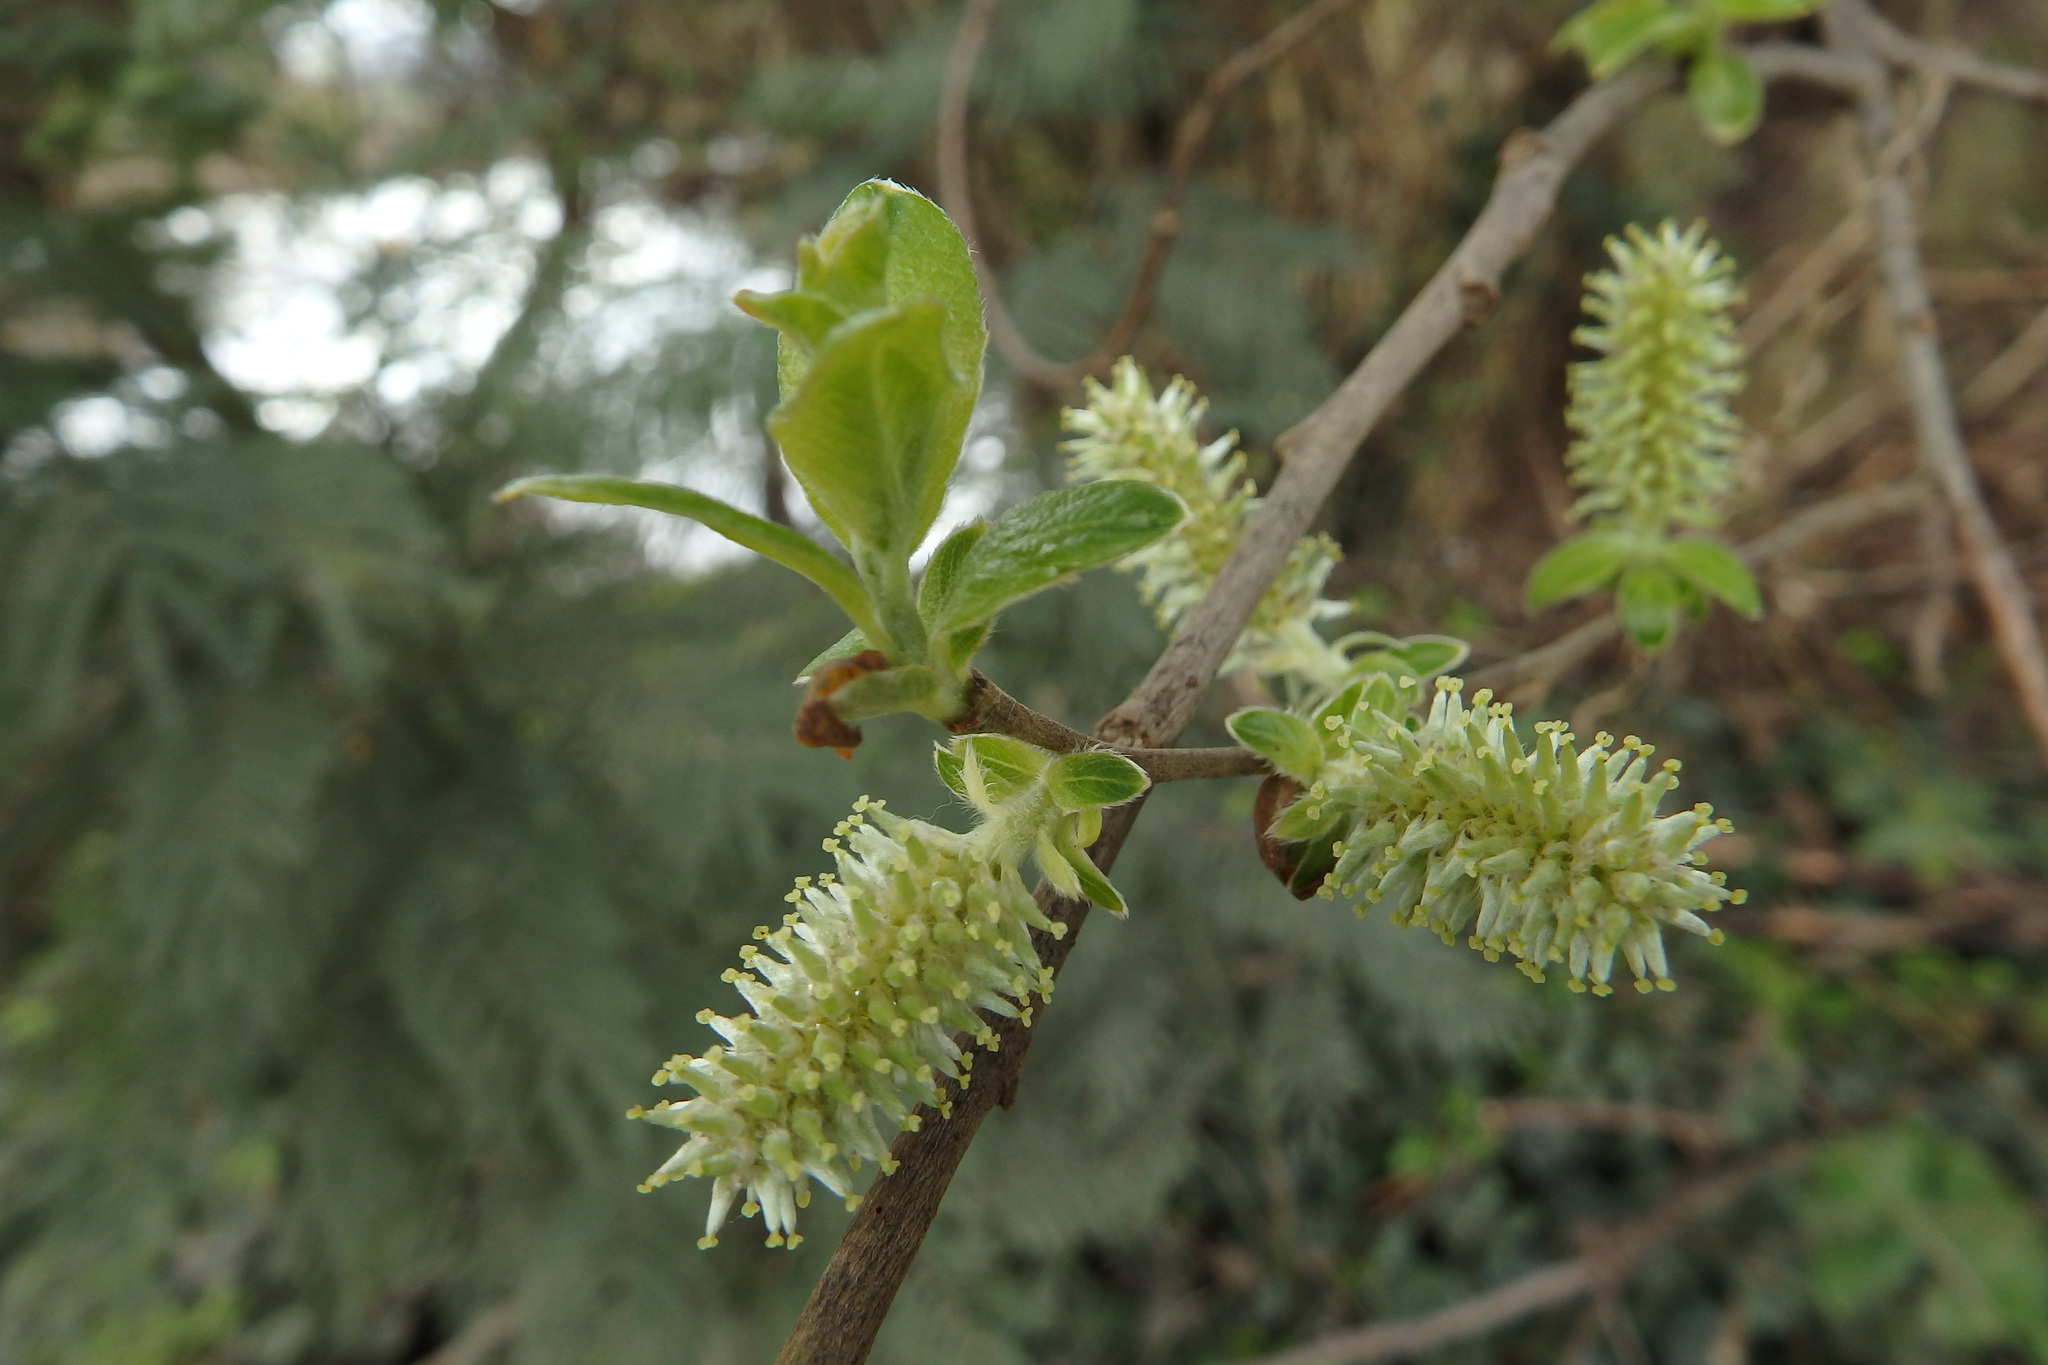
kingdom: Plantae
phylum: Tracheophyta
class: Magnoliopsida
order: Malpighiales
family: Salicaceae
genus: Salix
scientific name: Salix salviifolia
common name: Salvia-leaf willow
